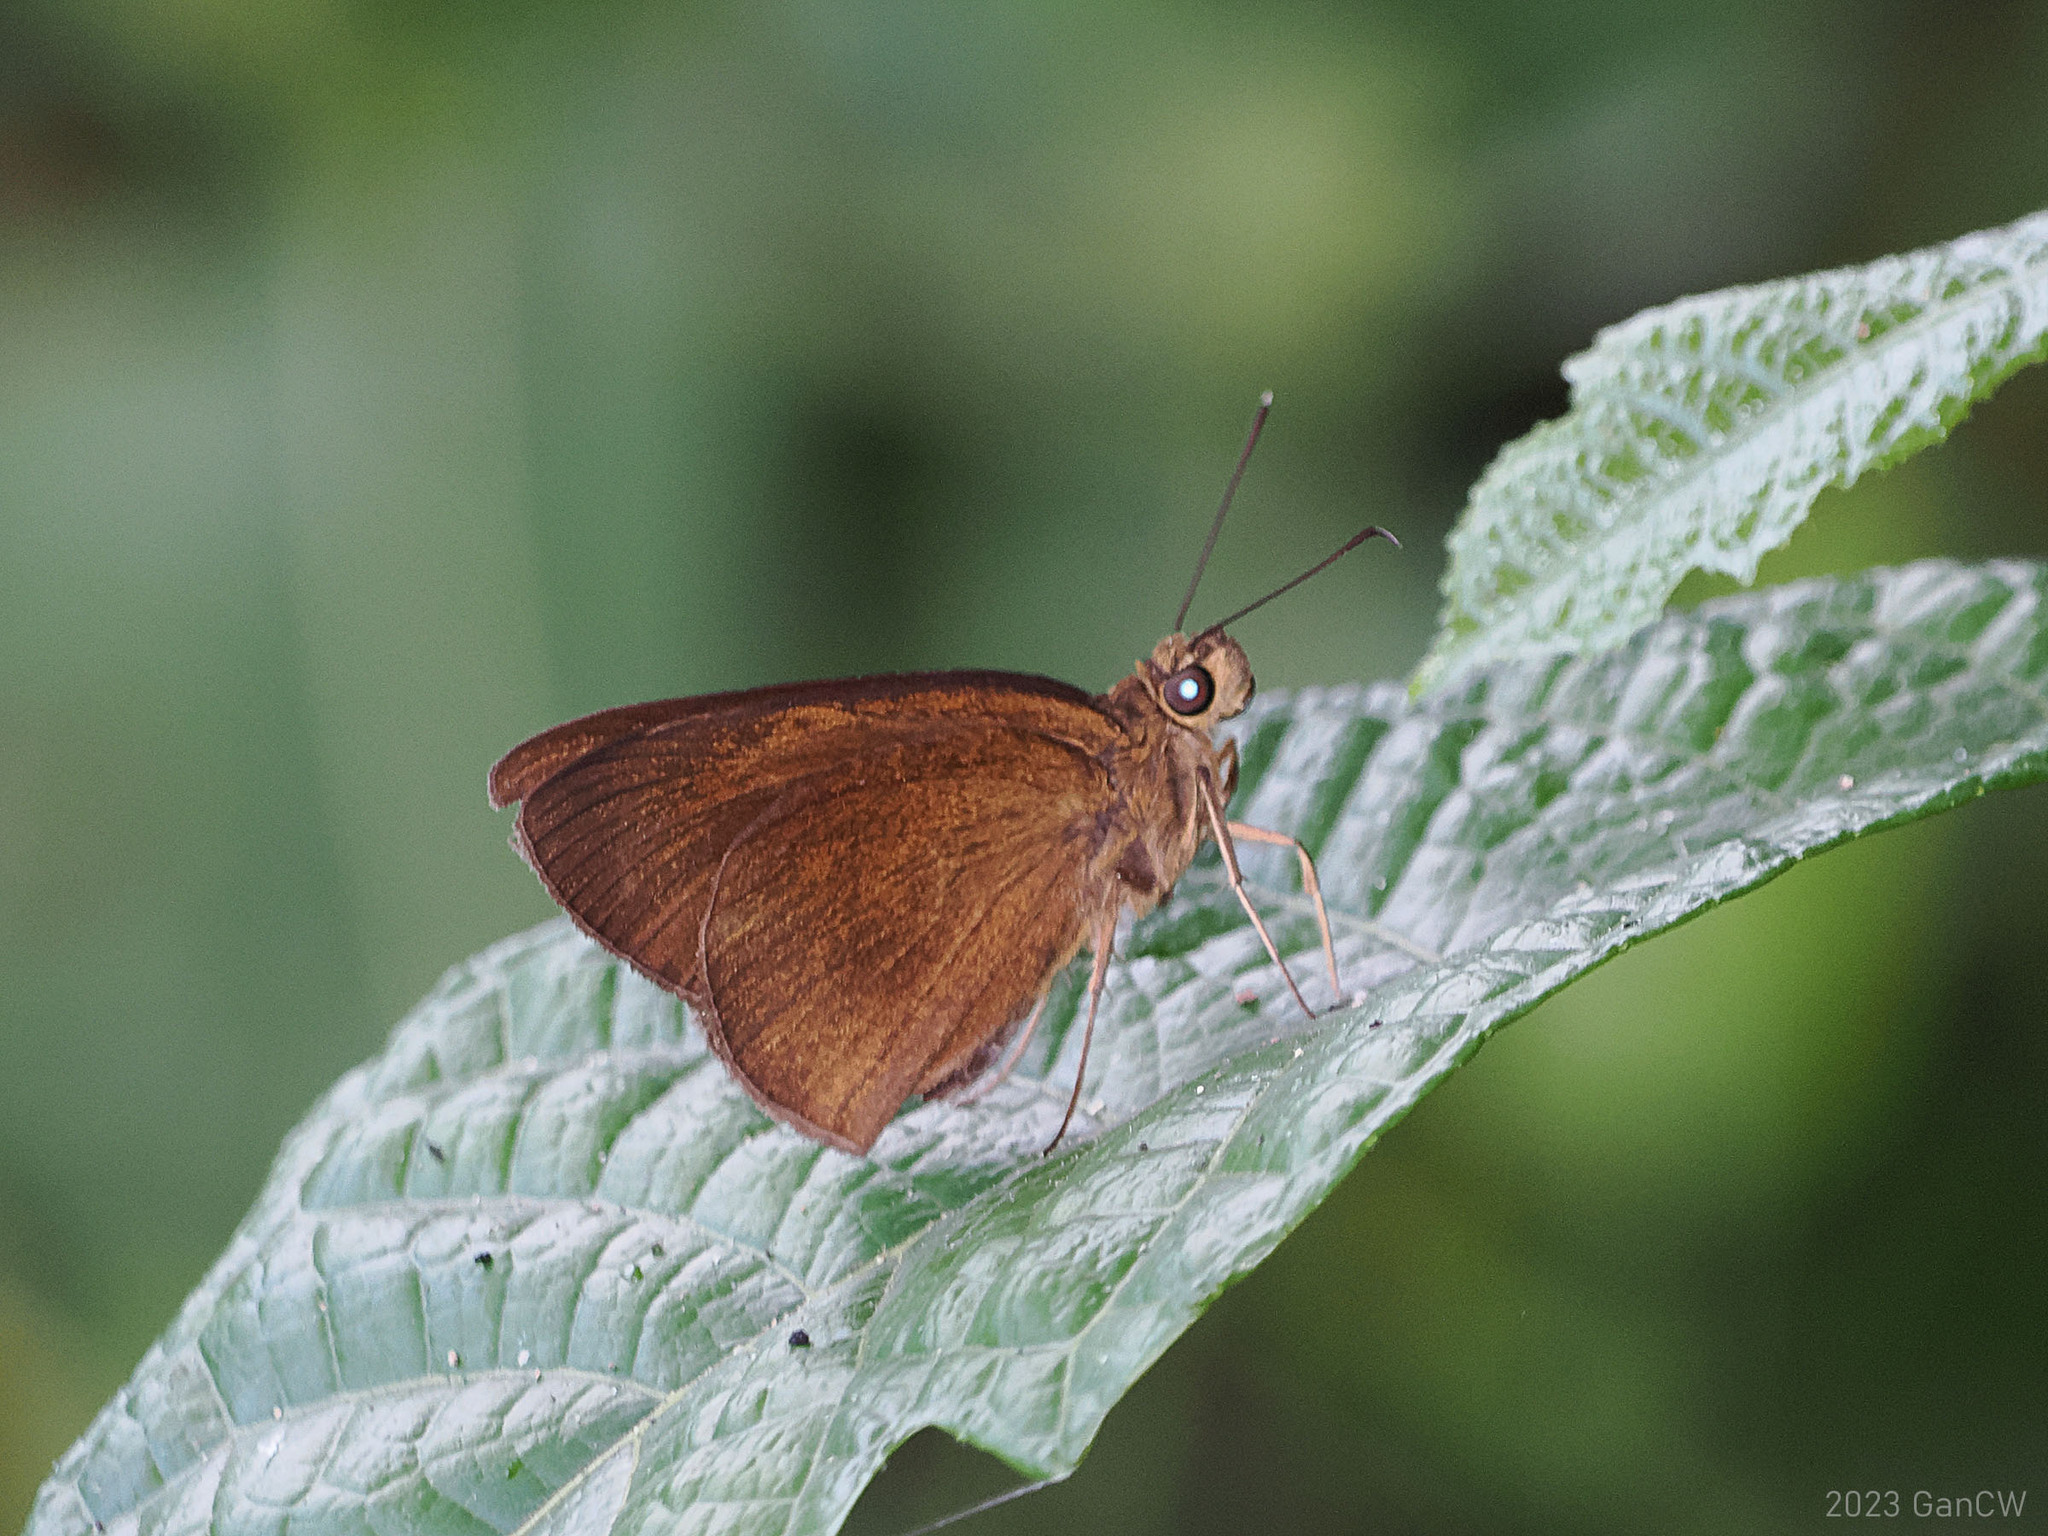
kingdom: Animalia
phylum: Arthropoda
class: Insecta
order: Lepidoptera
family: Hesperiidae
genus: Ancistroides
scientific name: Ancistroides nigrita
